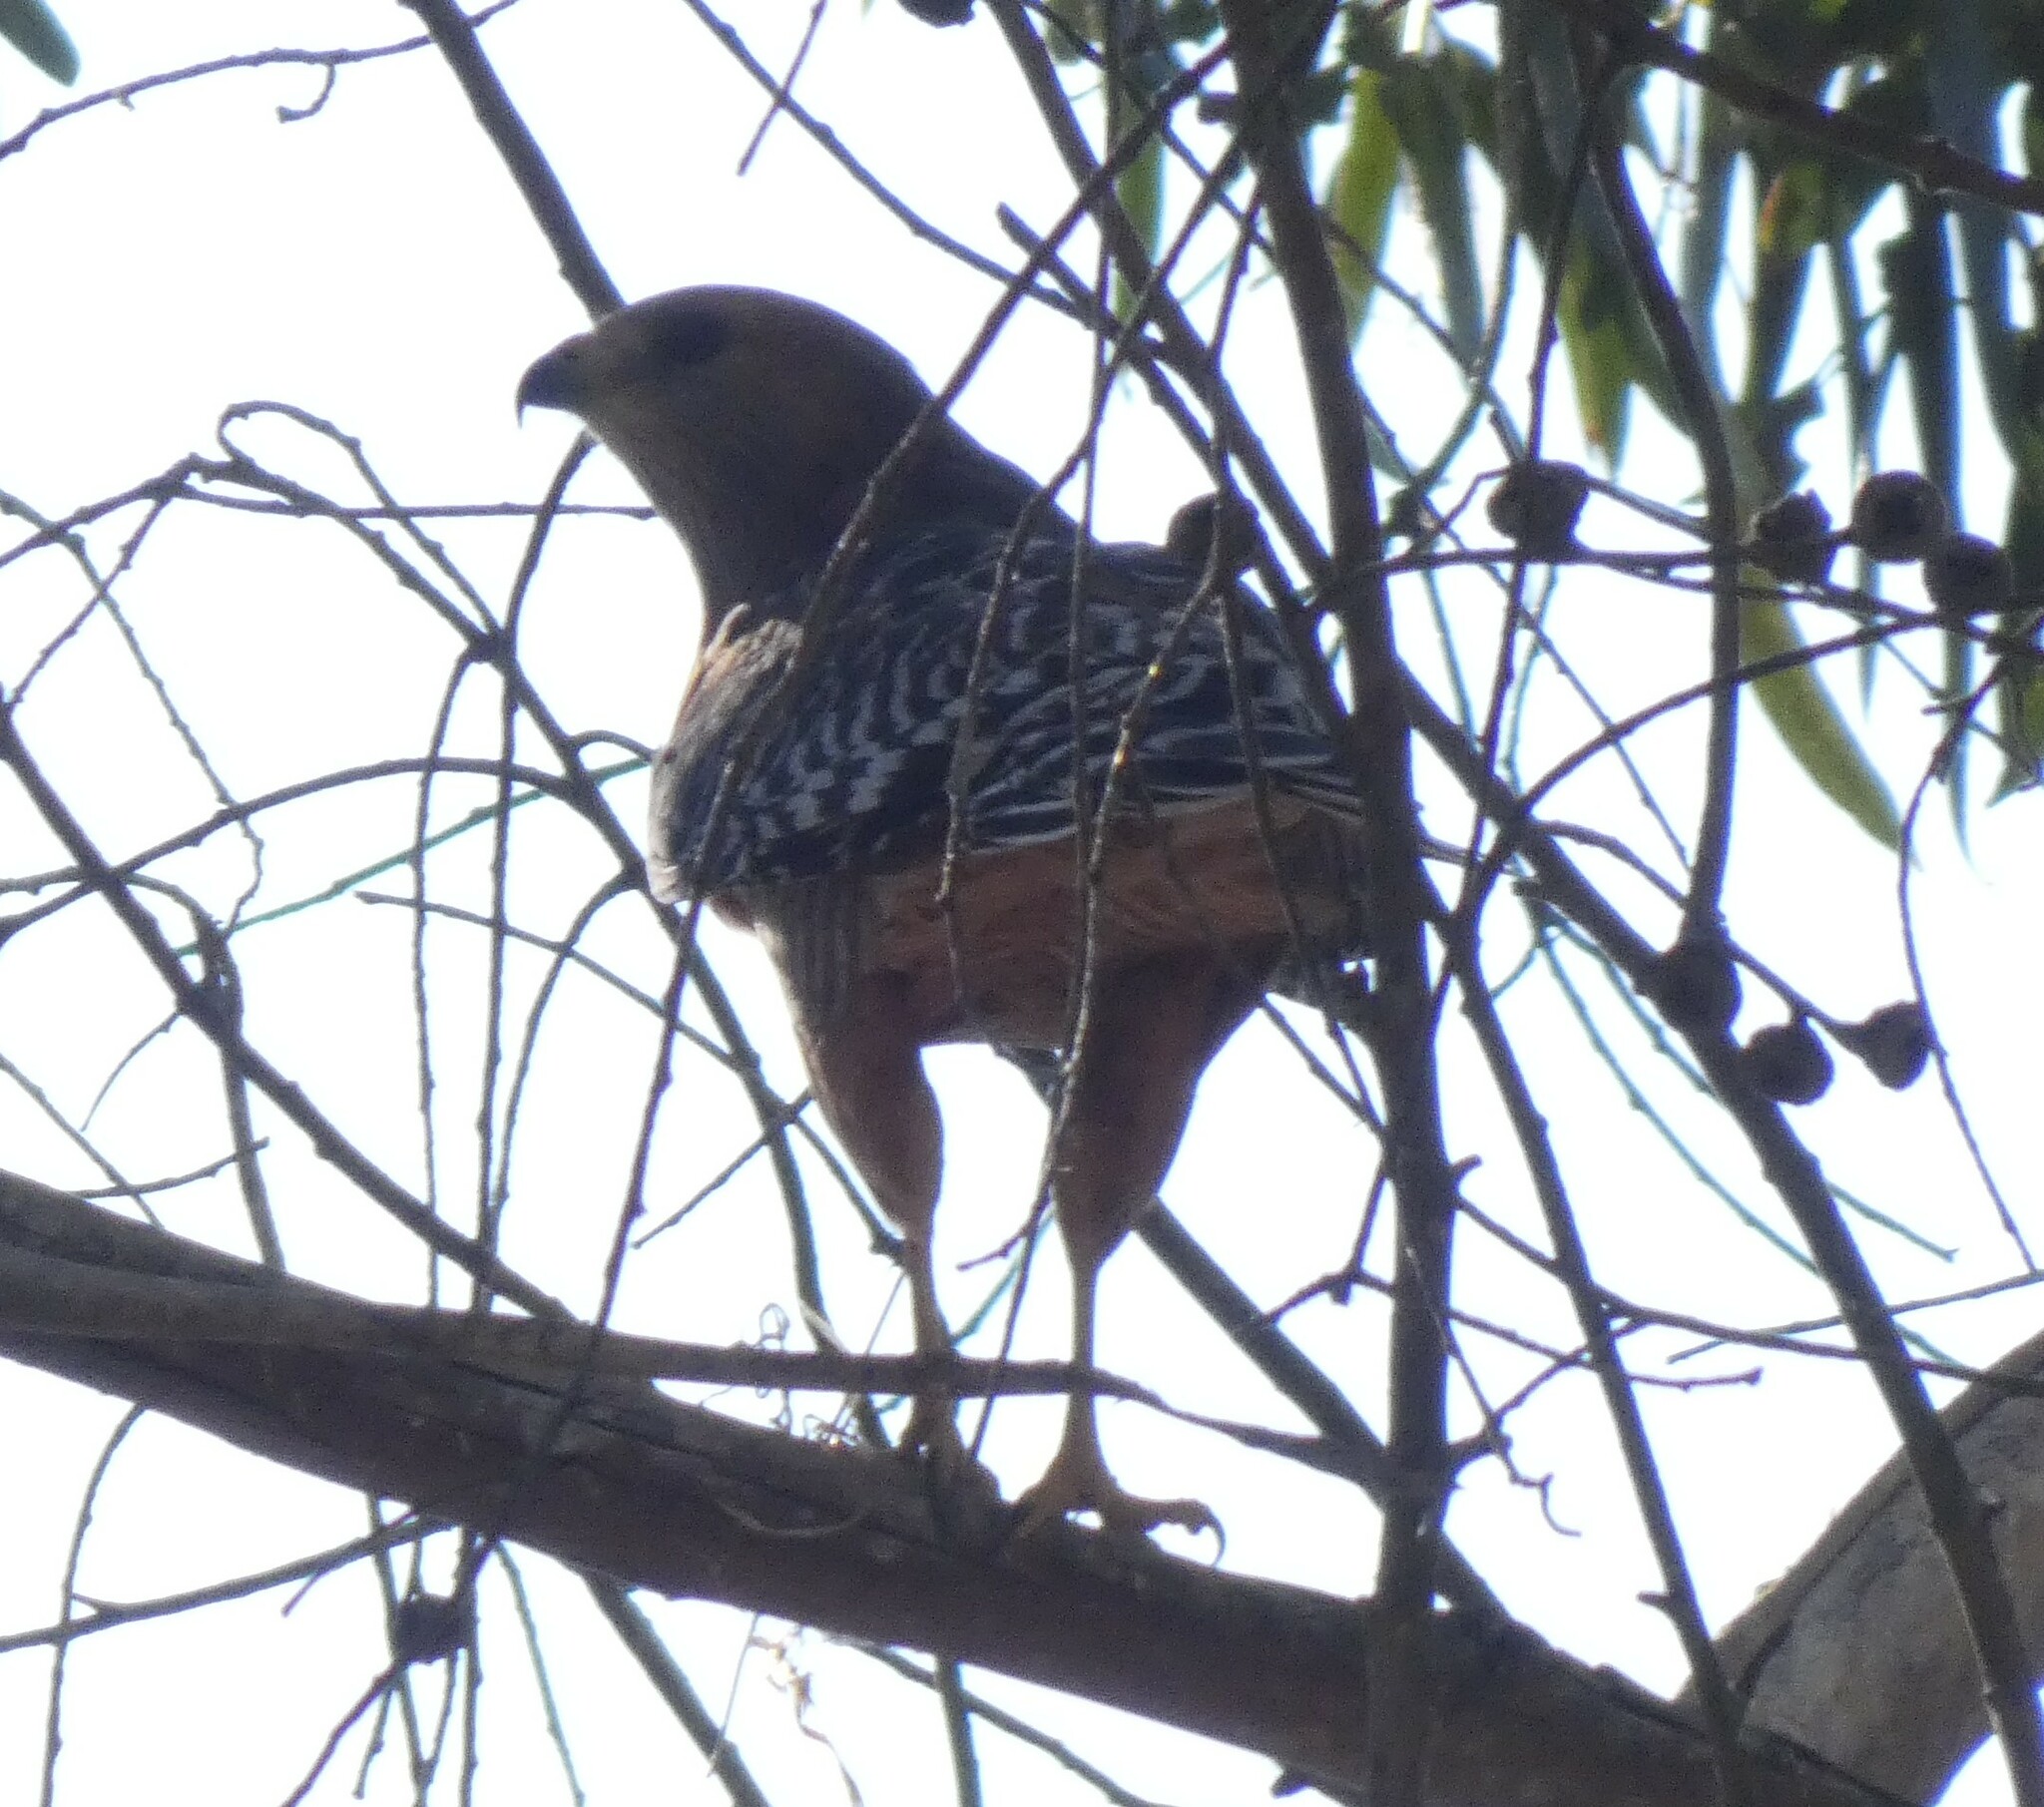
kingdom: Animalia
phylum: Chordata
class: Aves
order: Accipitriformes
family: Accipitridae
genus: Buteo
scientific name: Buteo lineatus
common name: Red-shouldered hawk
